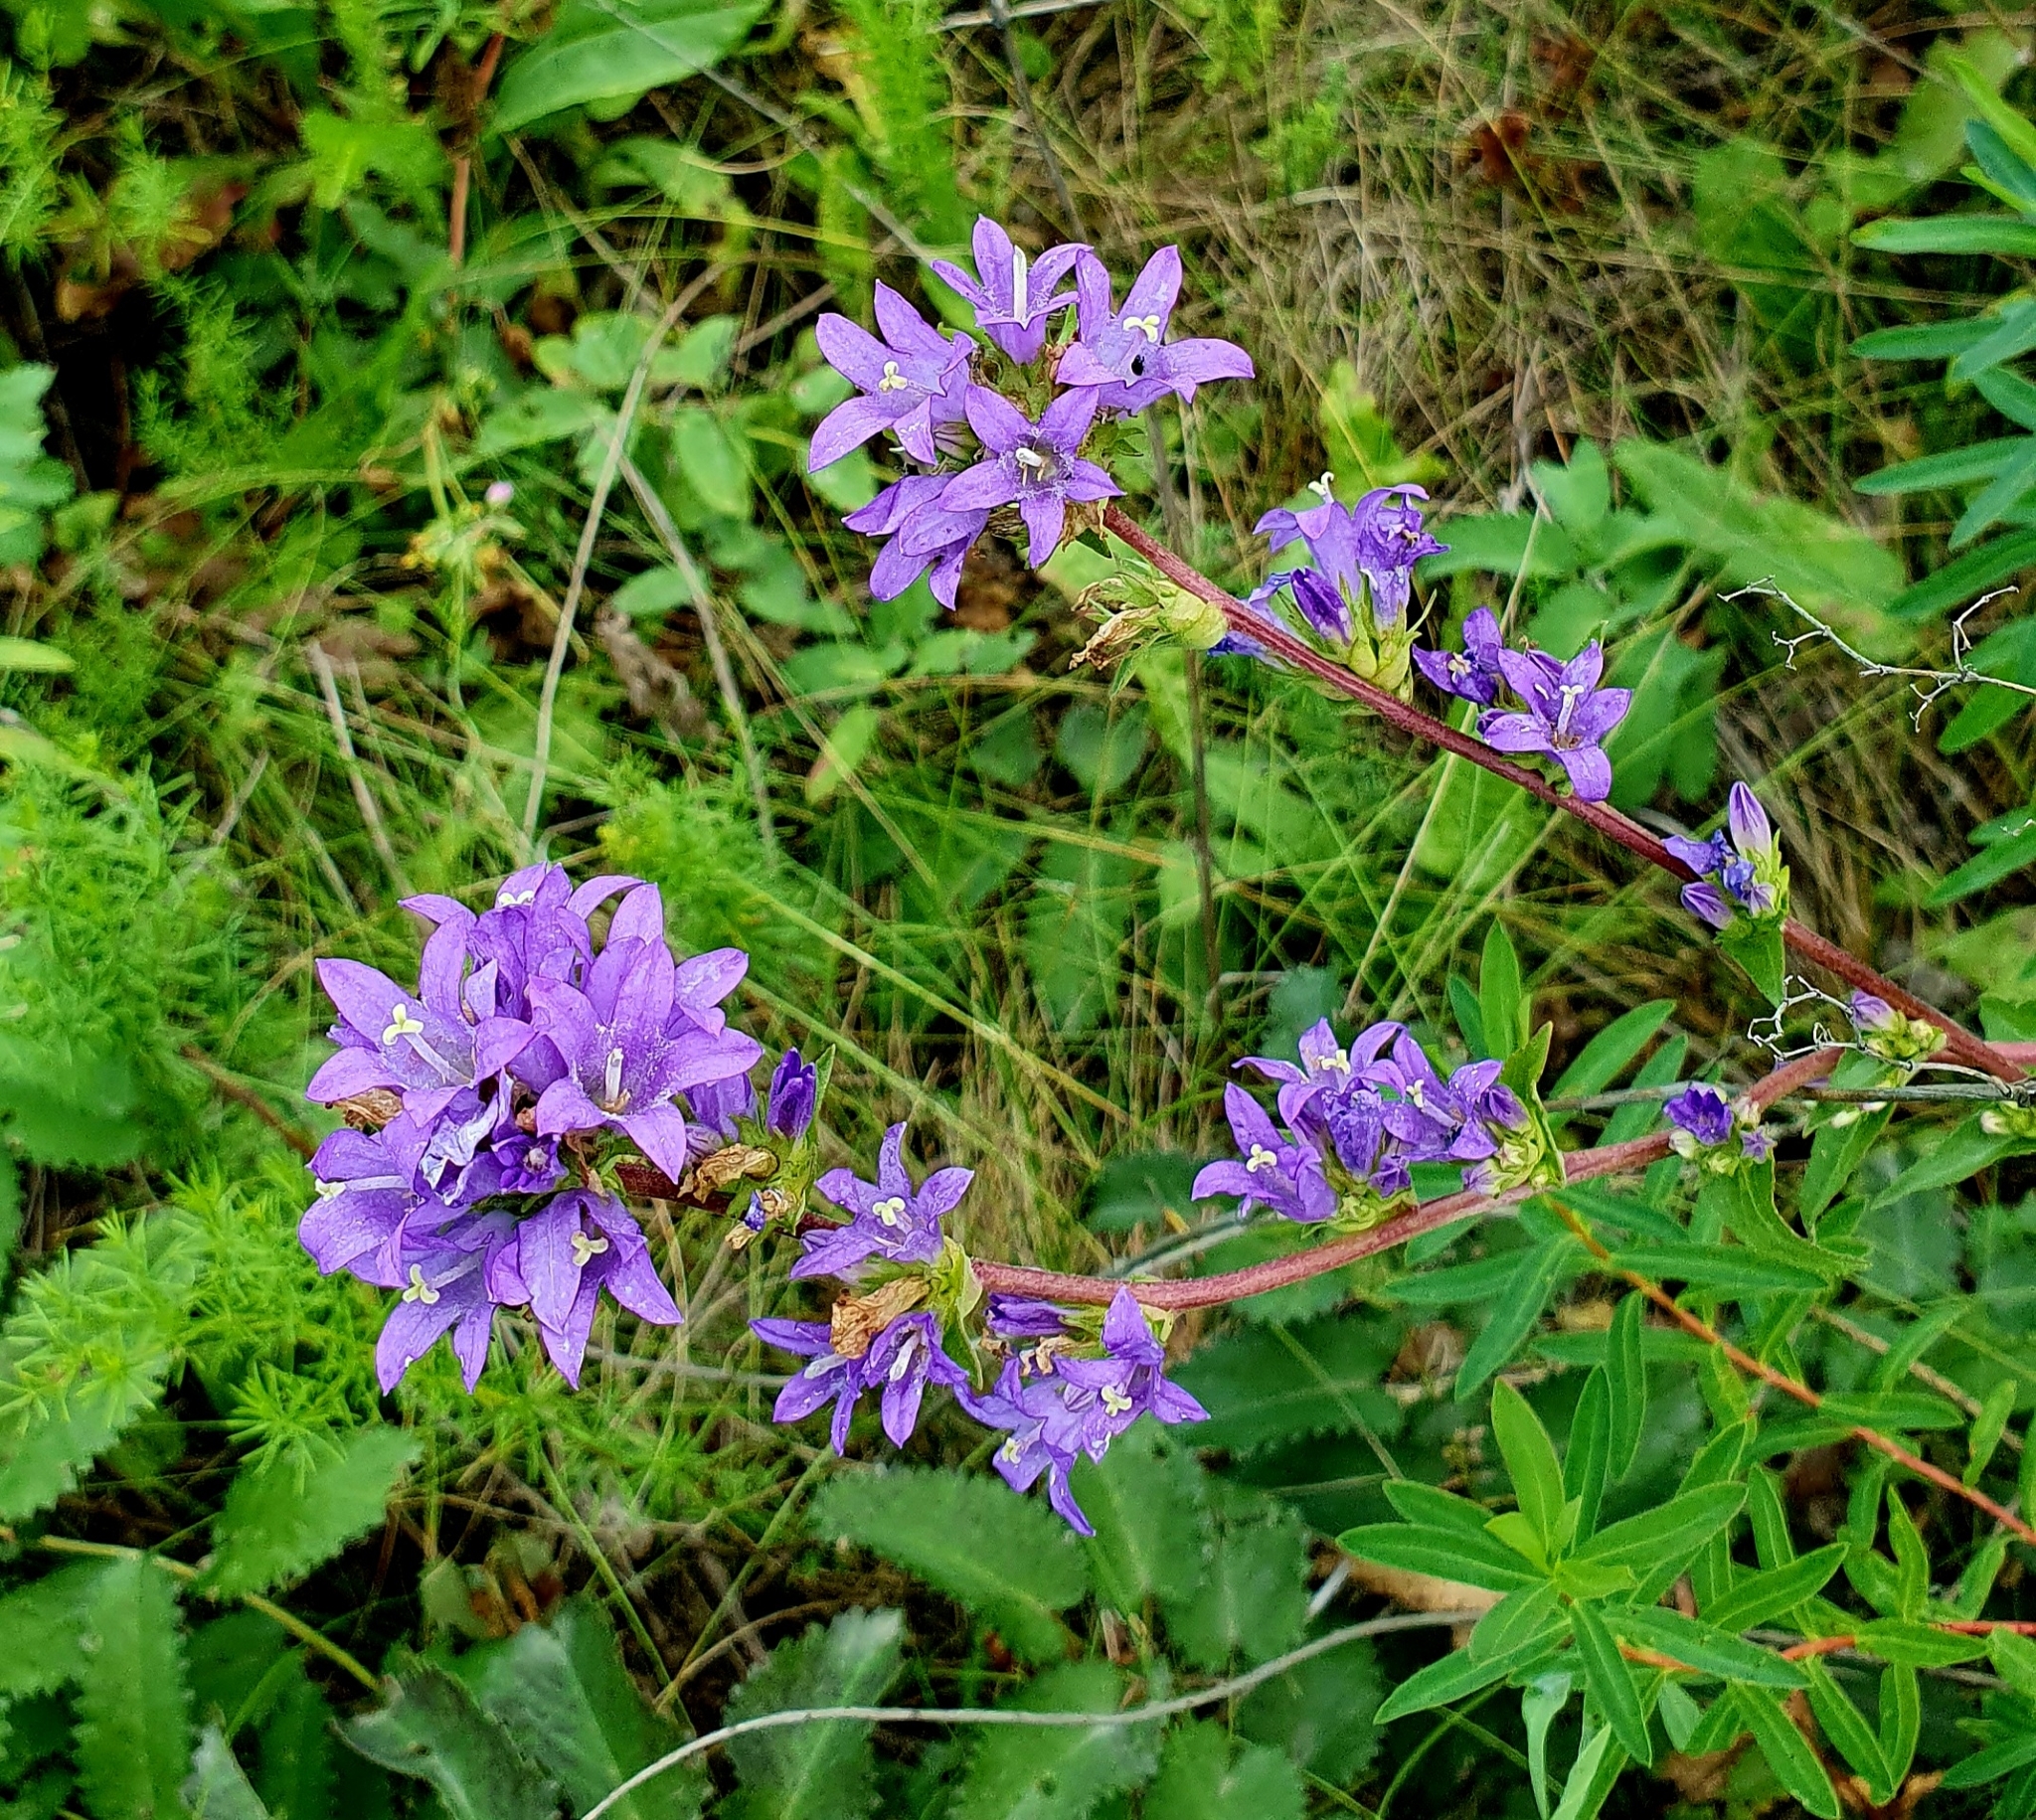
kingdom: Plantae
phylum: Tracheophyta
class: Magnoliopsida
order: Asterales
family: Campanulaceae
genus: Campanula
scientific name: Campanula glomerata
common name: Clustered bellflower
